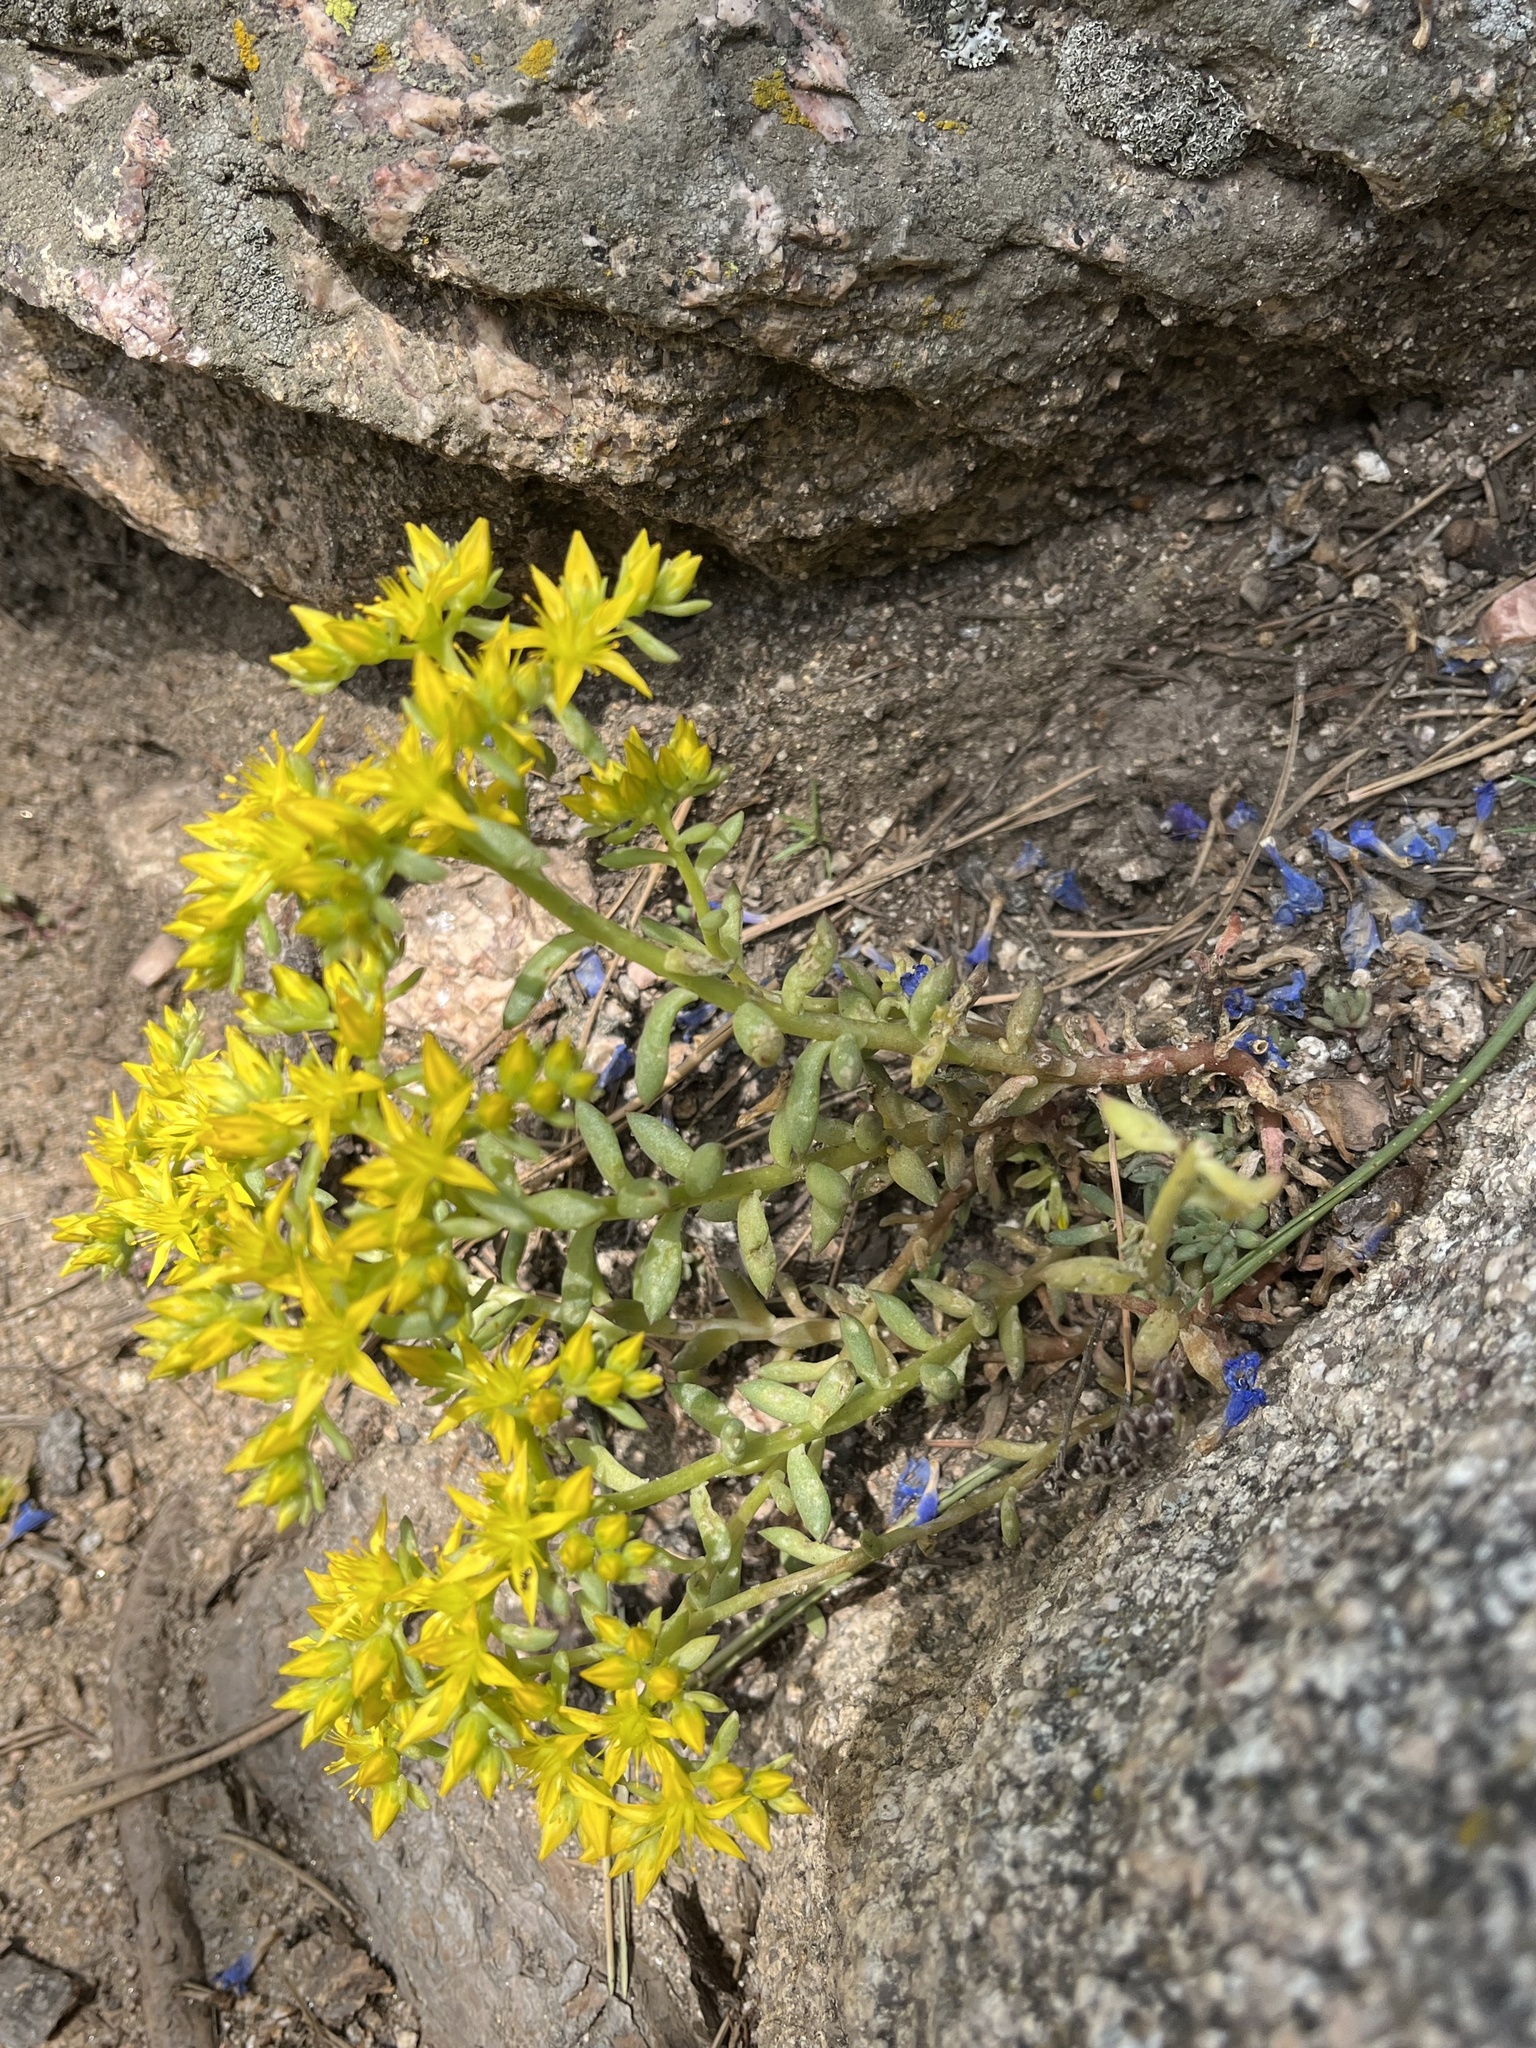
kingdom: Plantae
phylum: Tracheophyta
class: Magnoliopsida
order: Saxifragales
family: Crassulaceae
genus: Sedum
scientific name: Sedum lanceolatum
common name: Common stonecrop
